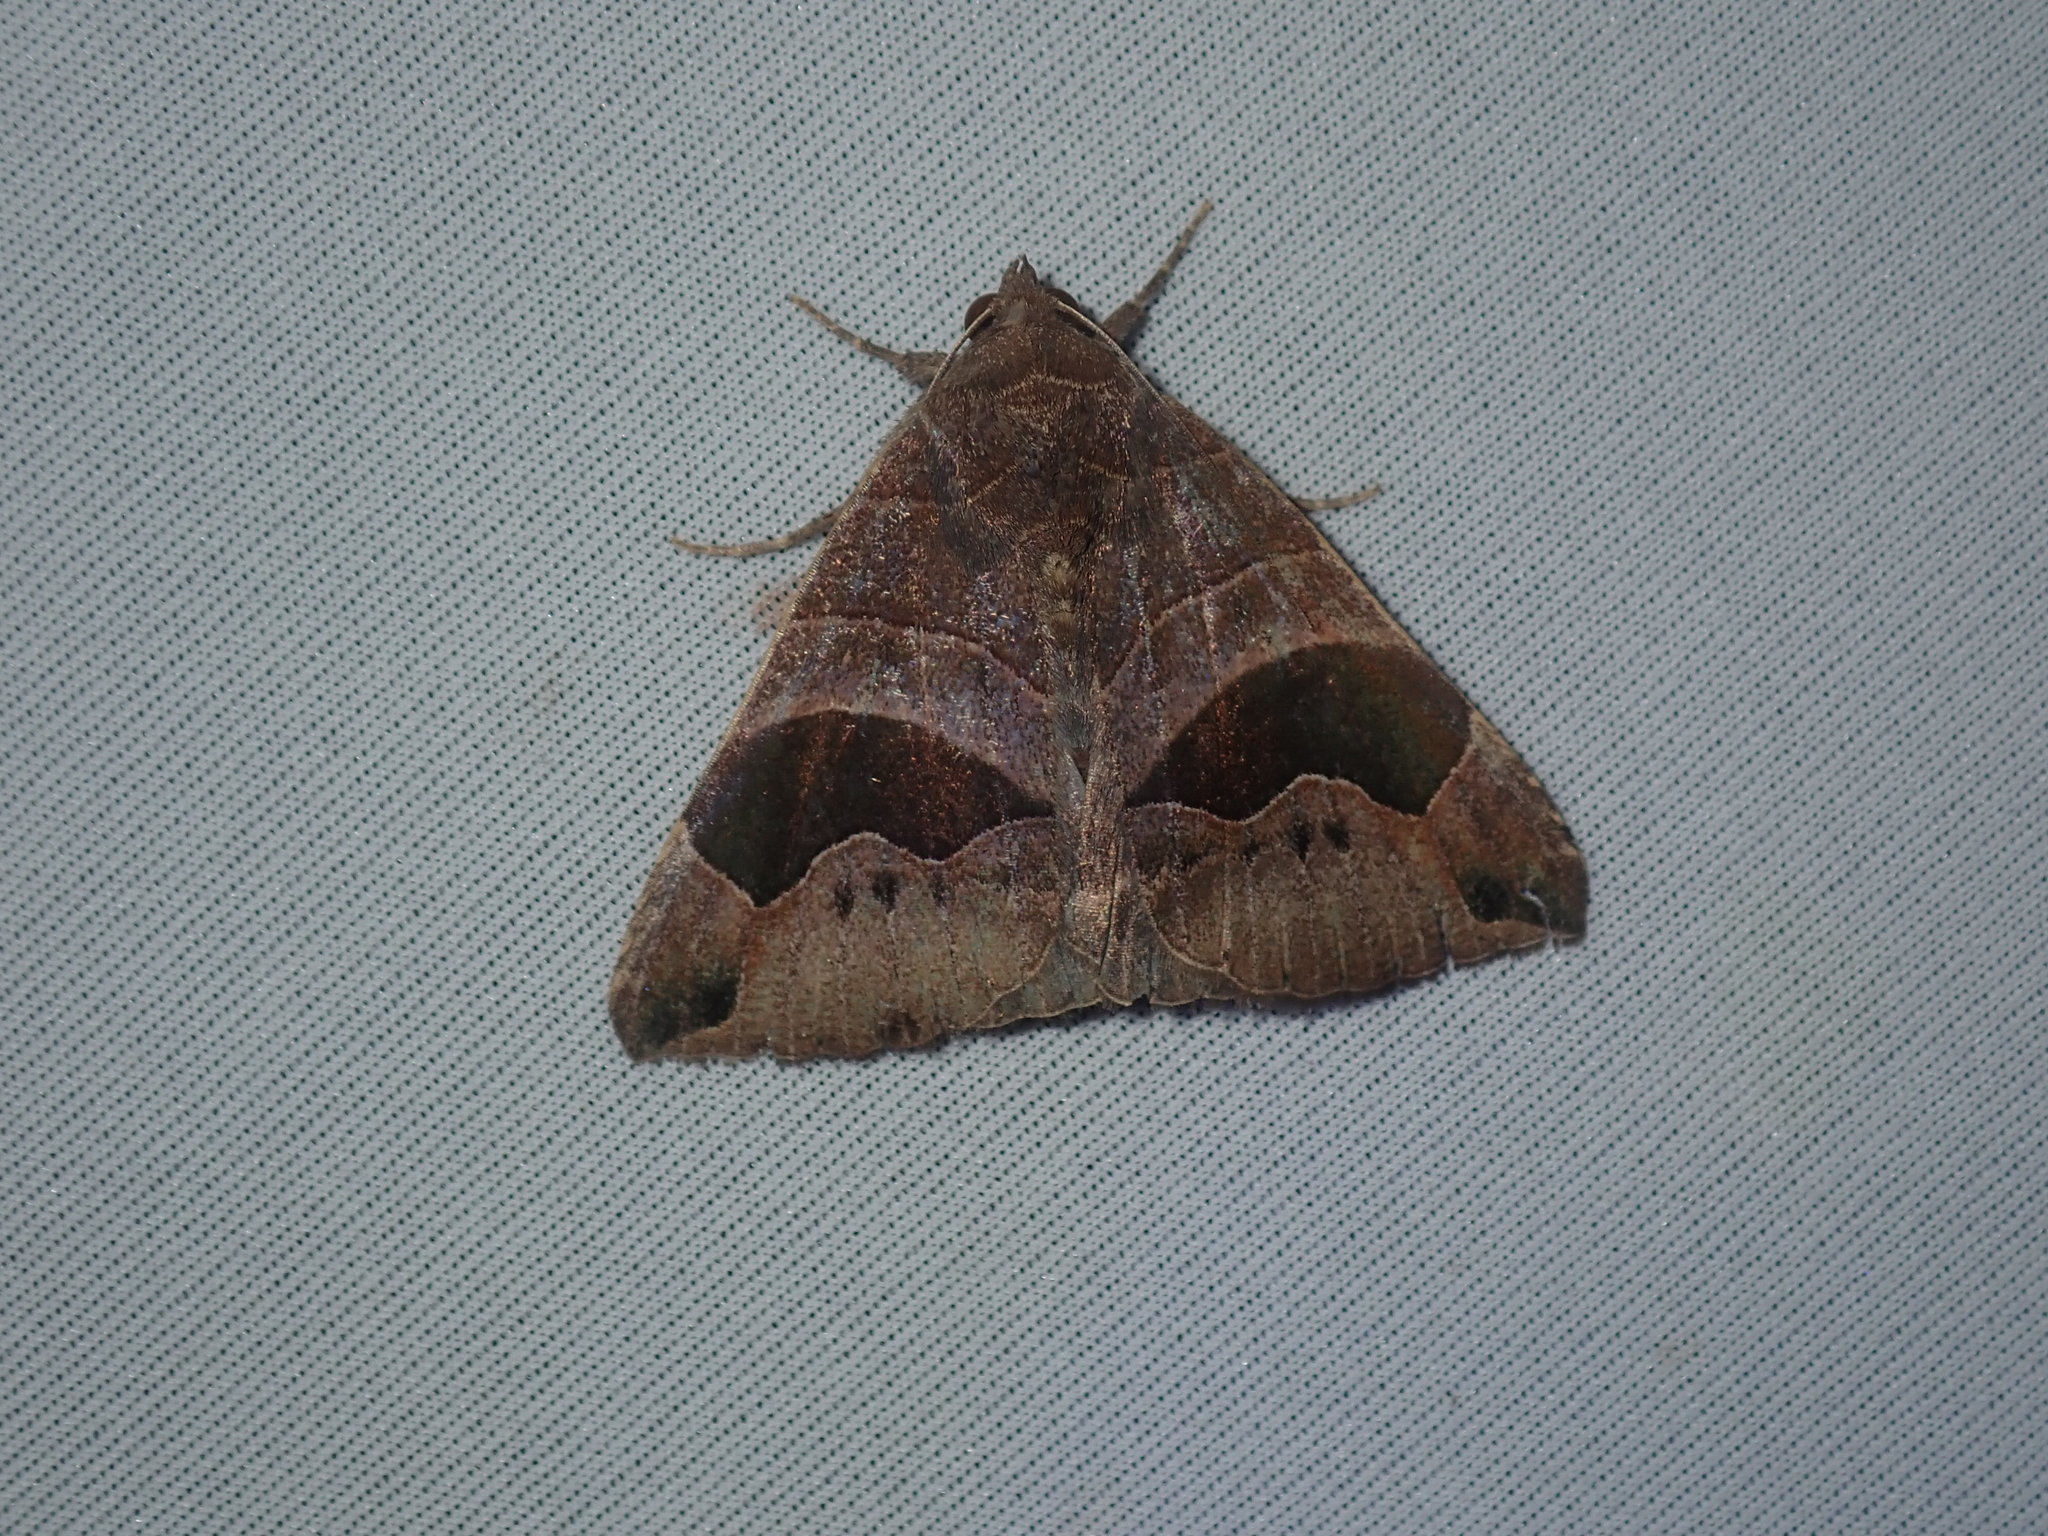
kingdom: Animalia
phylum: Arthropoda
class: Insecta
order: Lepidoptera
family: Erebidae
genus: Bastilla
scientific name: Bastilla solomonensis
